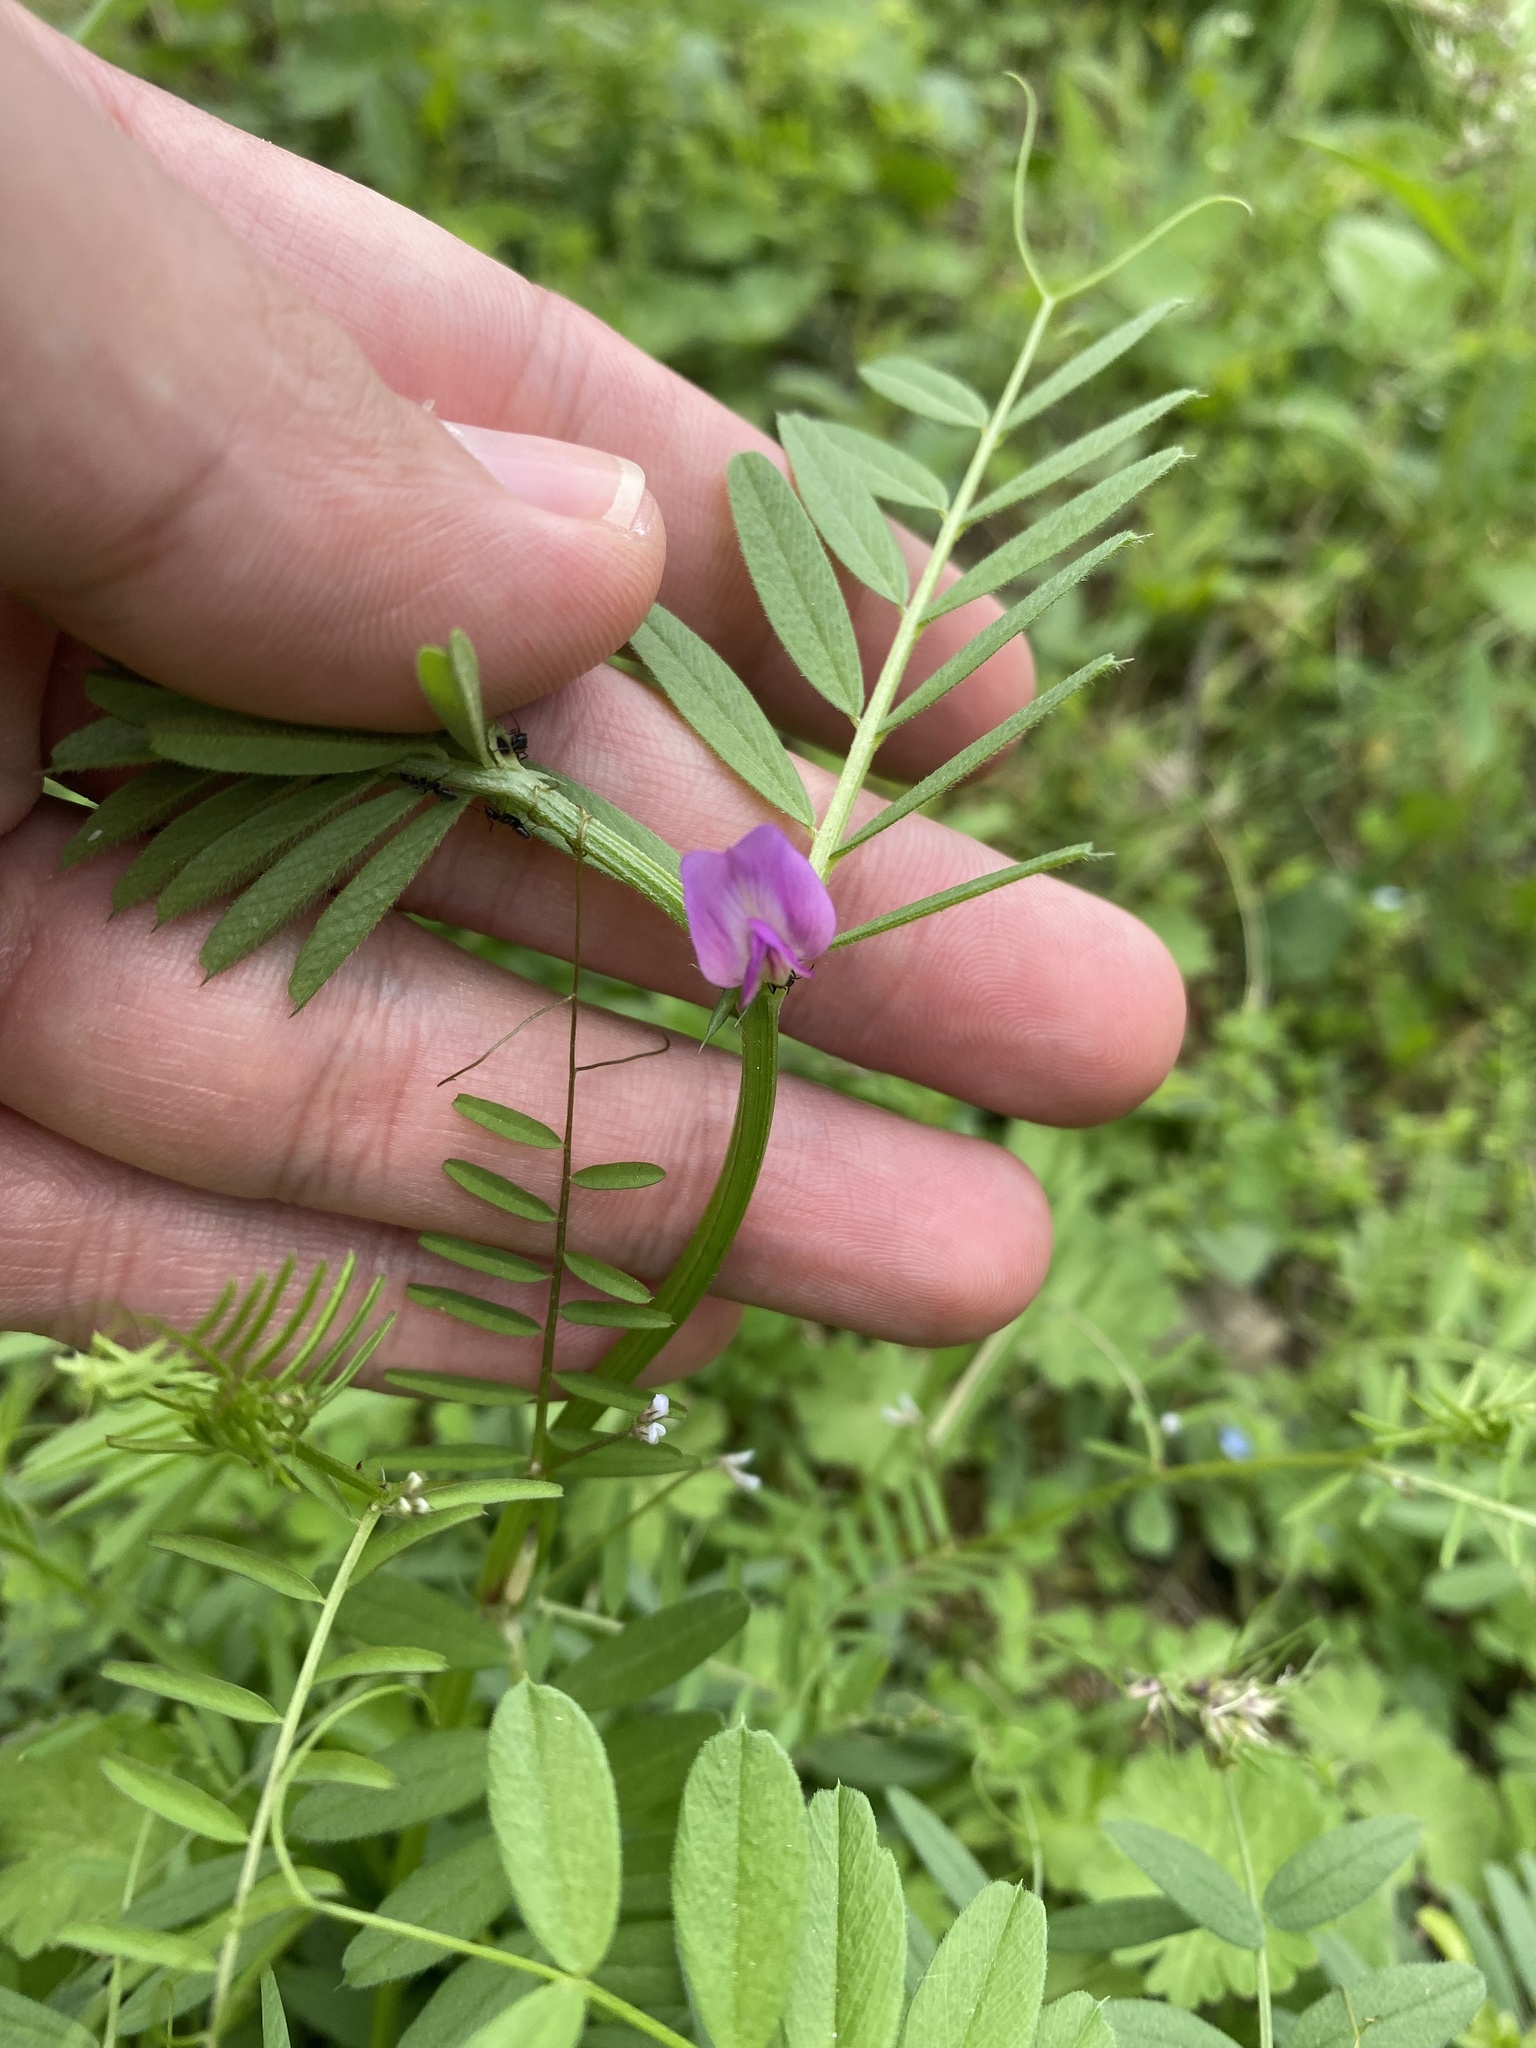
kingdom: Plantae
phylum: Tracheophyta
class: Magnoliopsida
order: Fabales
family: Fabaceae
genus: Vicia
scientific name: Vicia sativa
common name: Garden vetch
